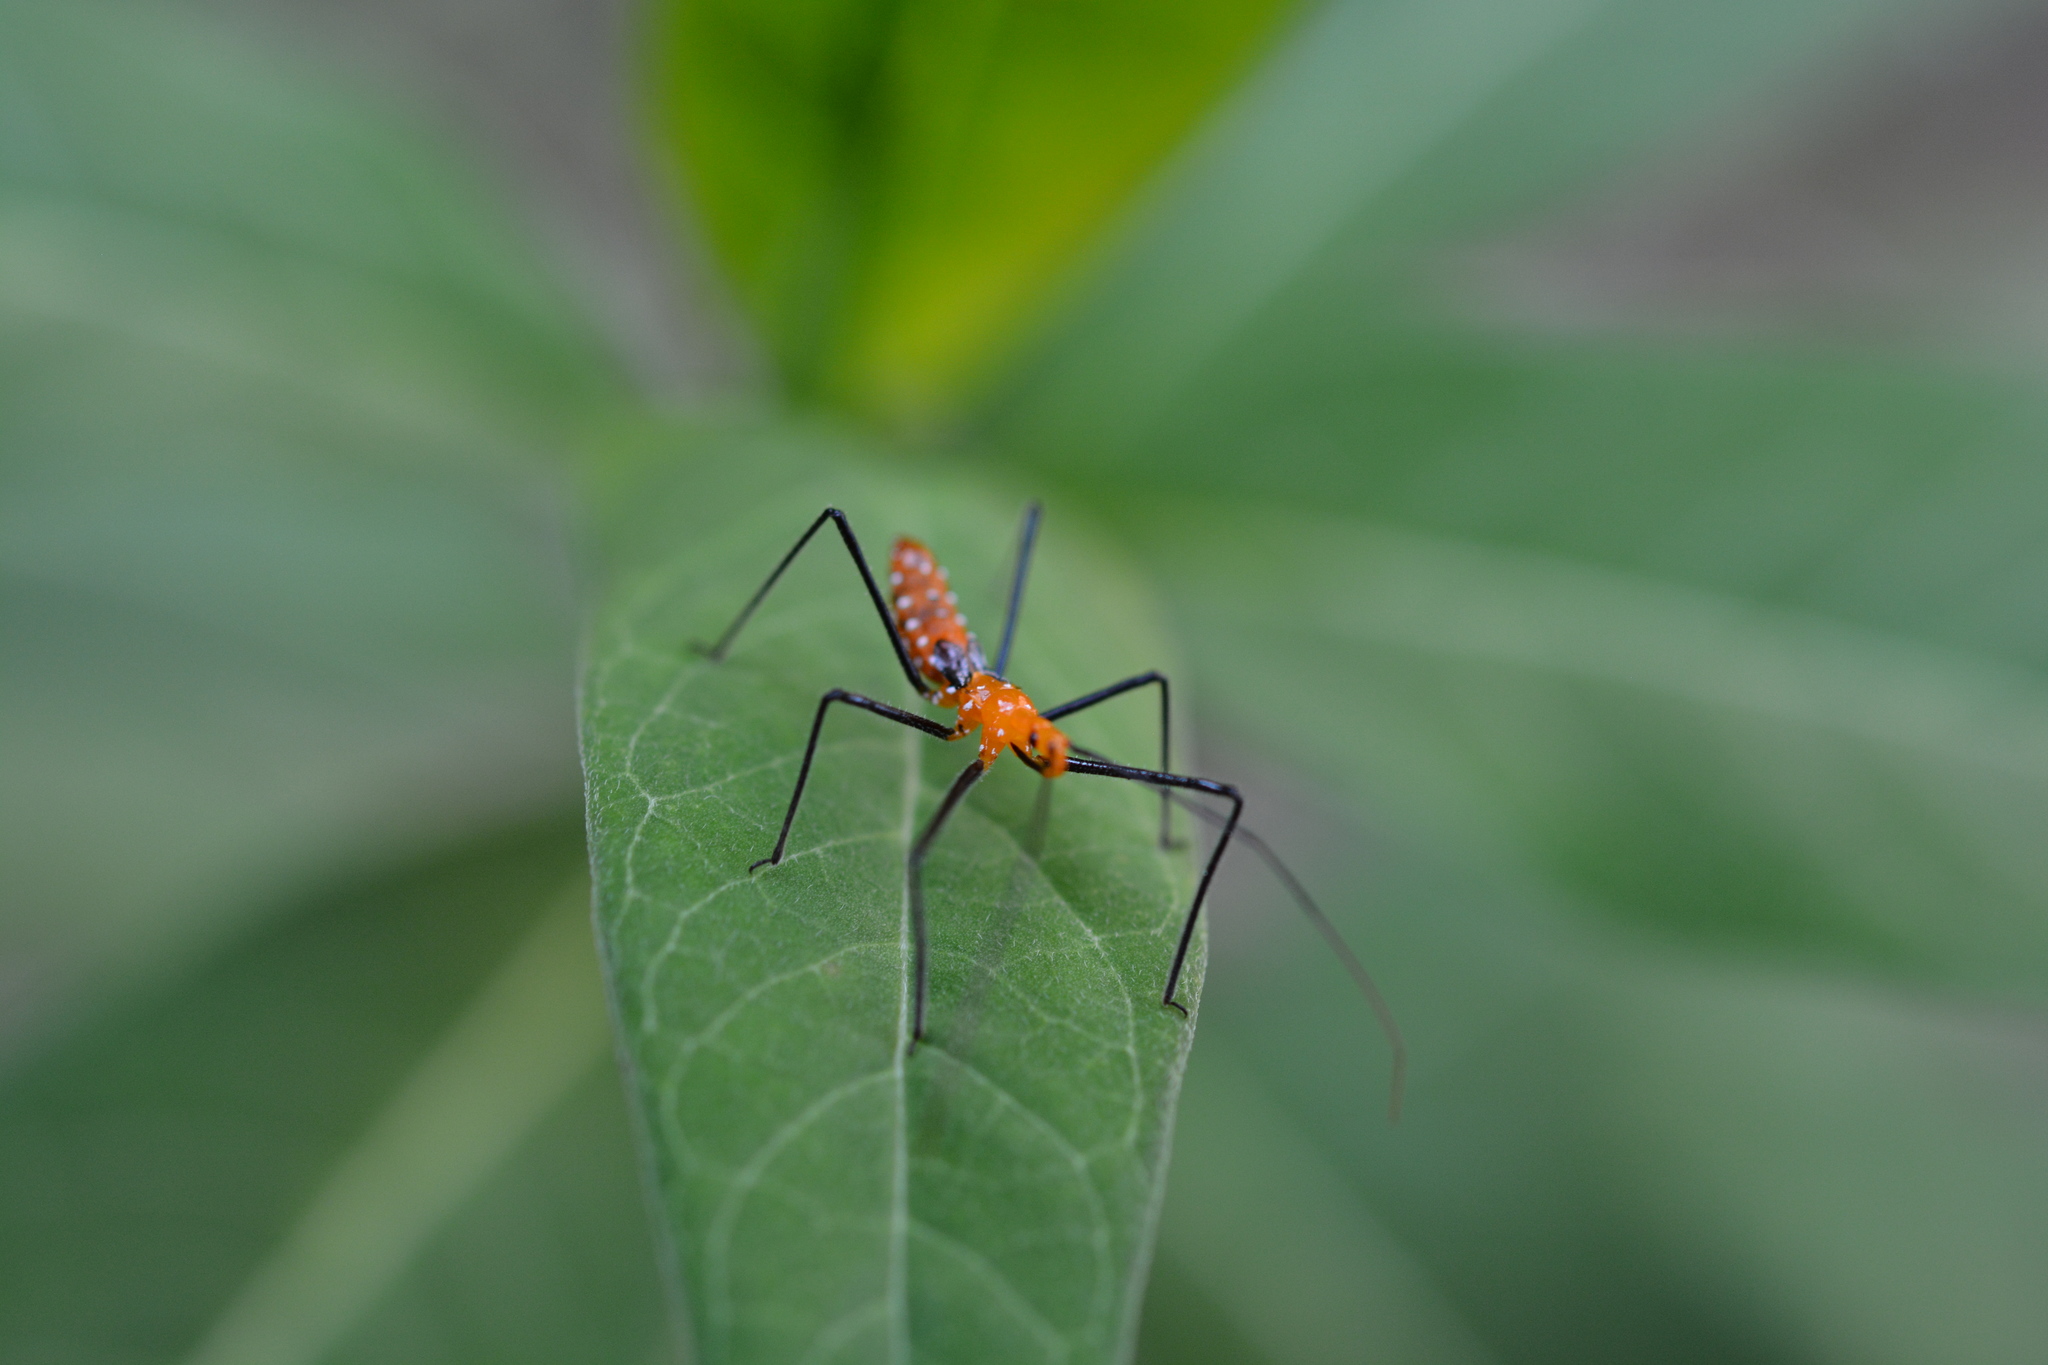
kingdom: Animalia
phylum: Arthropoda
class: Insecta
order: Hemiptera
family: Reduviidae
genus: Zelus
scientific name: Zelus longipes
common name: Milkweed assassin bug
